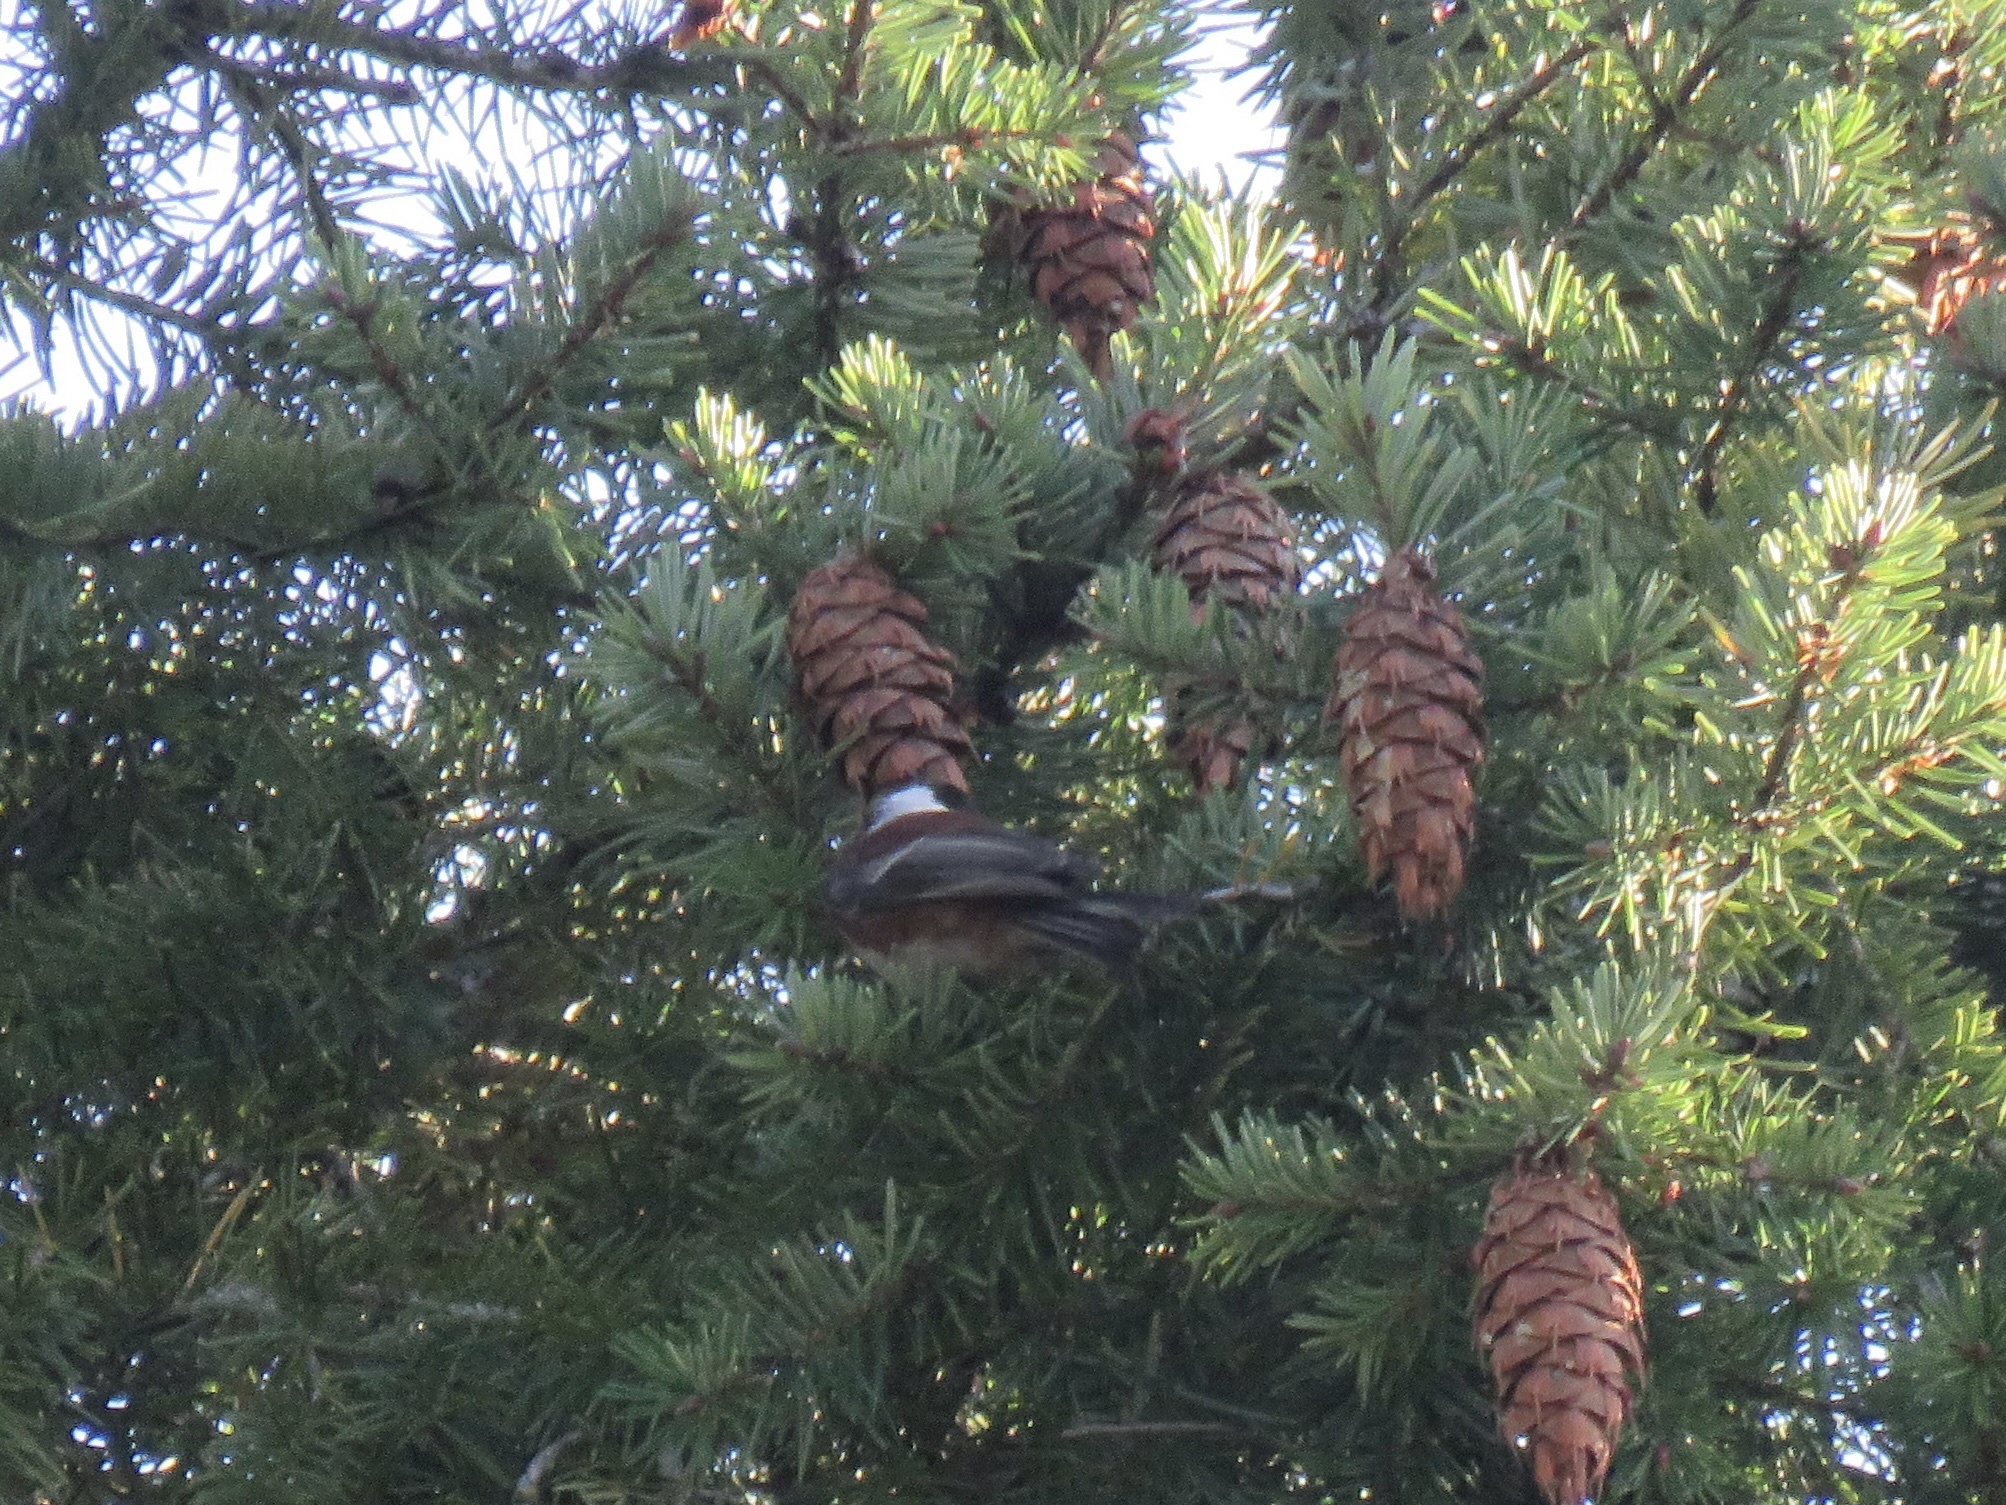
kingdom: Animalia
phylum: Chordata
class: Aves
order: Passeriformes
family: Paridae
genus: Poecile
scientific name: Poecile rufescens
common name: Chestnut-backed chickadee
